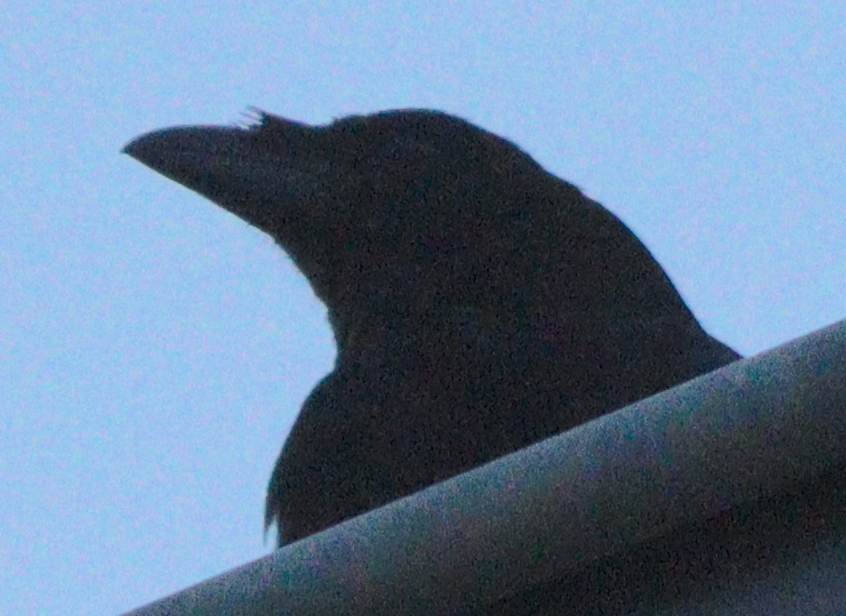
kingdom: Animalia
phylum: Chordata
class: Aves
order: Passeriformes
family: Corvidae
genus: Corvus
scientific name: Corvus corone
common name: Carrion crow
